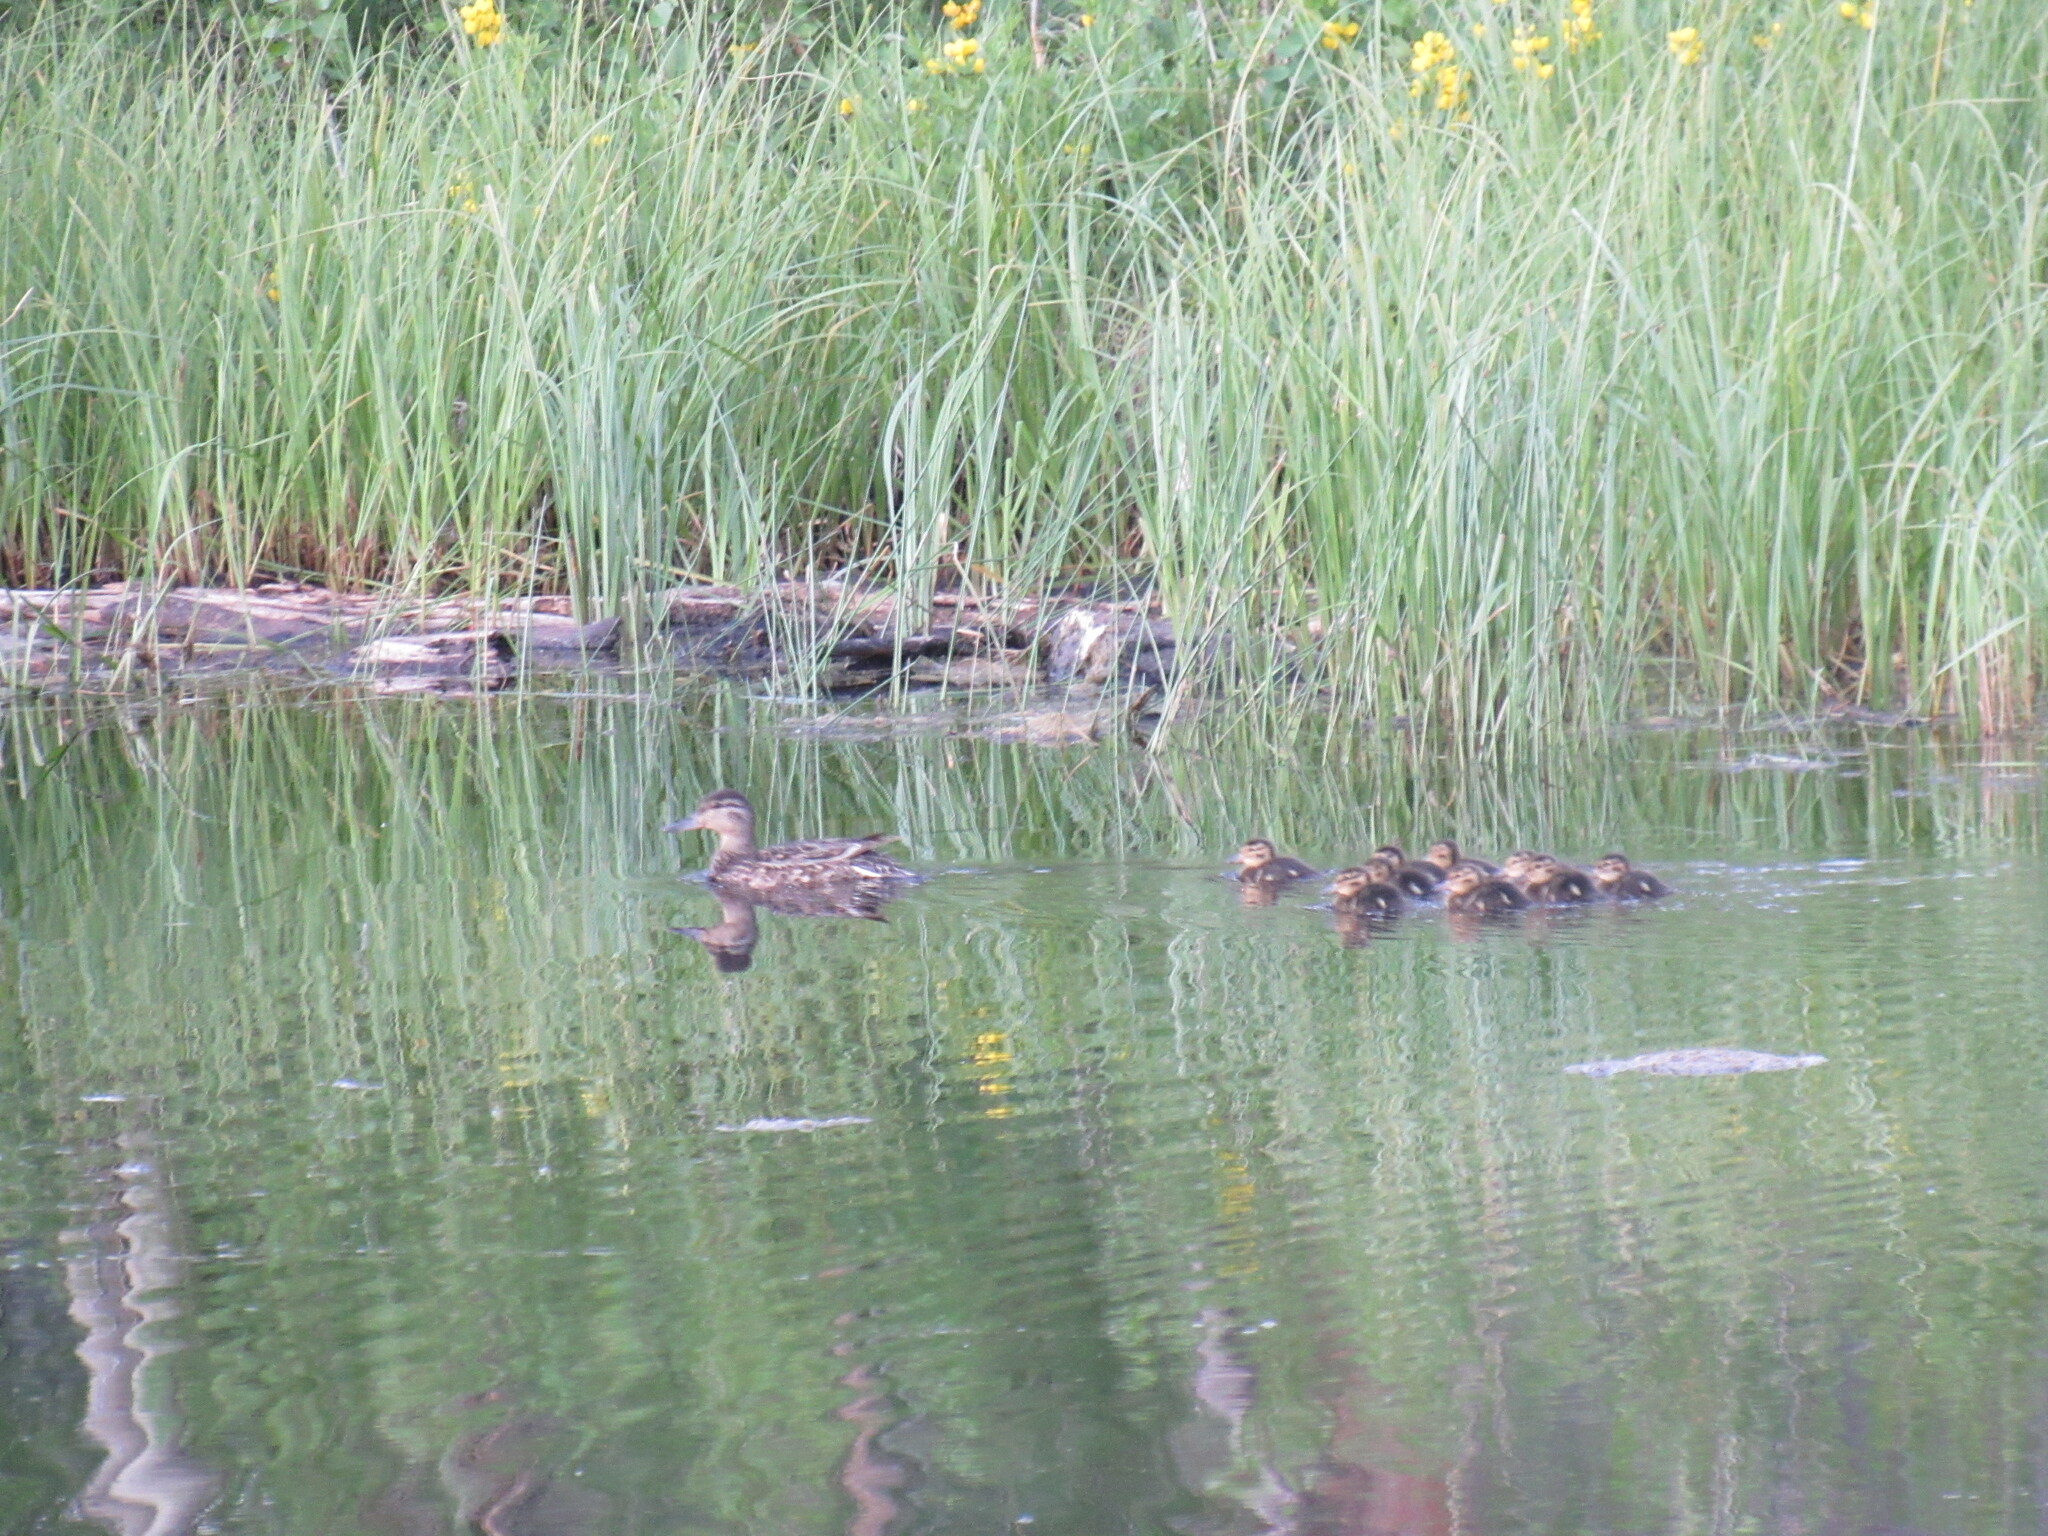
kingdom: Animalia
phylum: Chordata
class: Aves
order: Anseriformes
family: Anatidae
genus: Anas
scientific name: Anas carolinensis
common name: Green-winged teal
